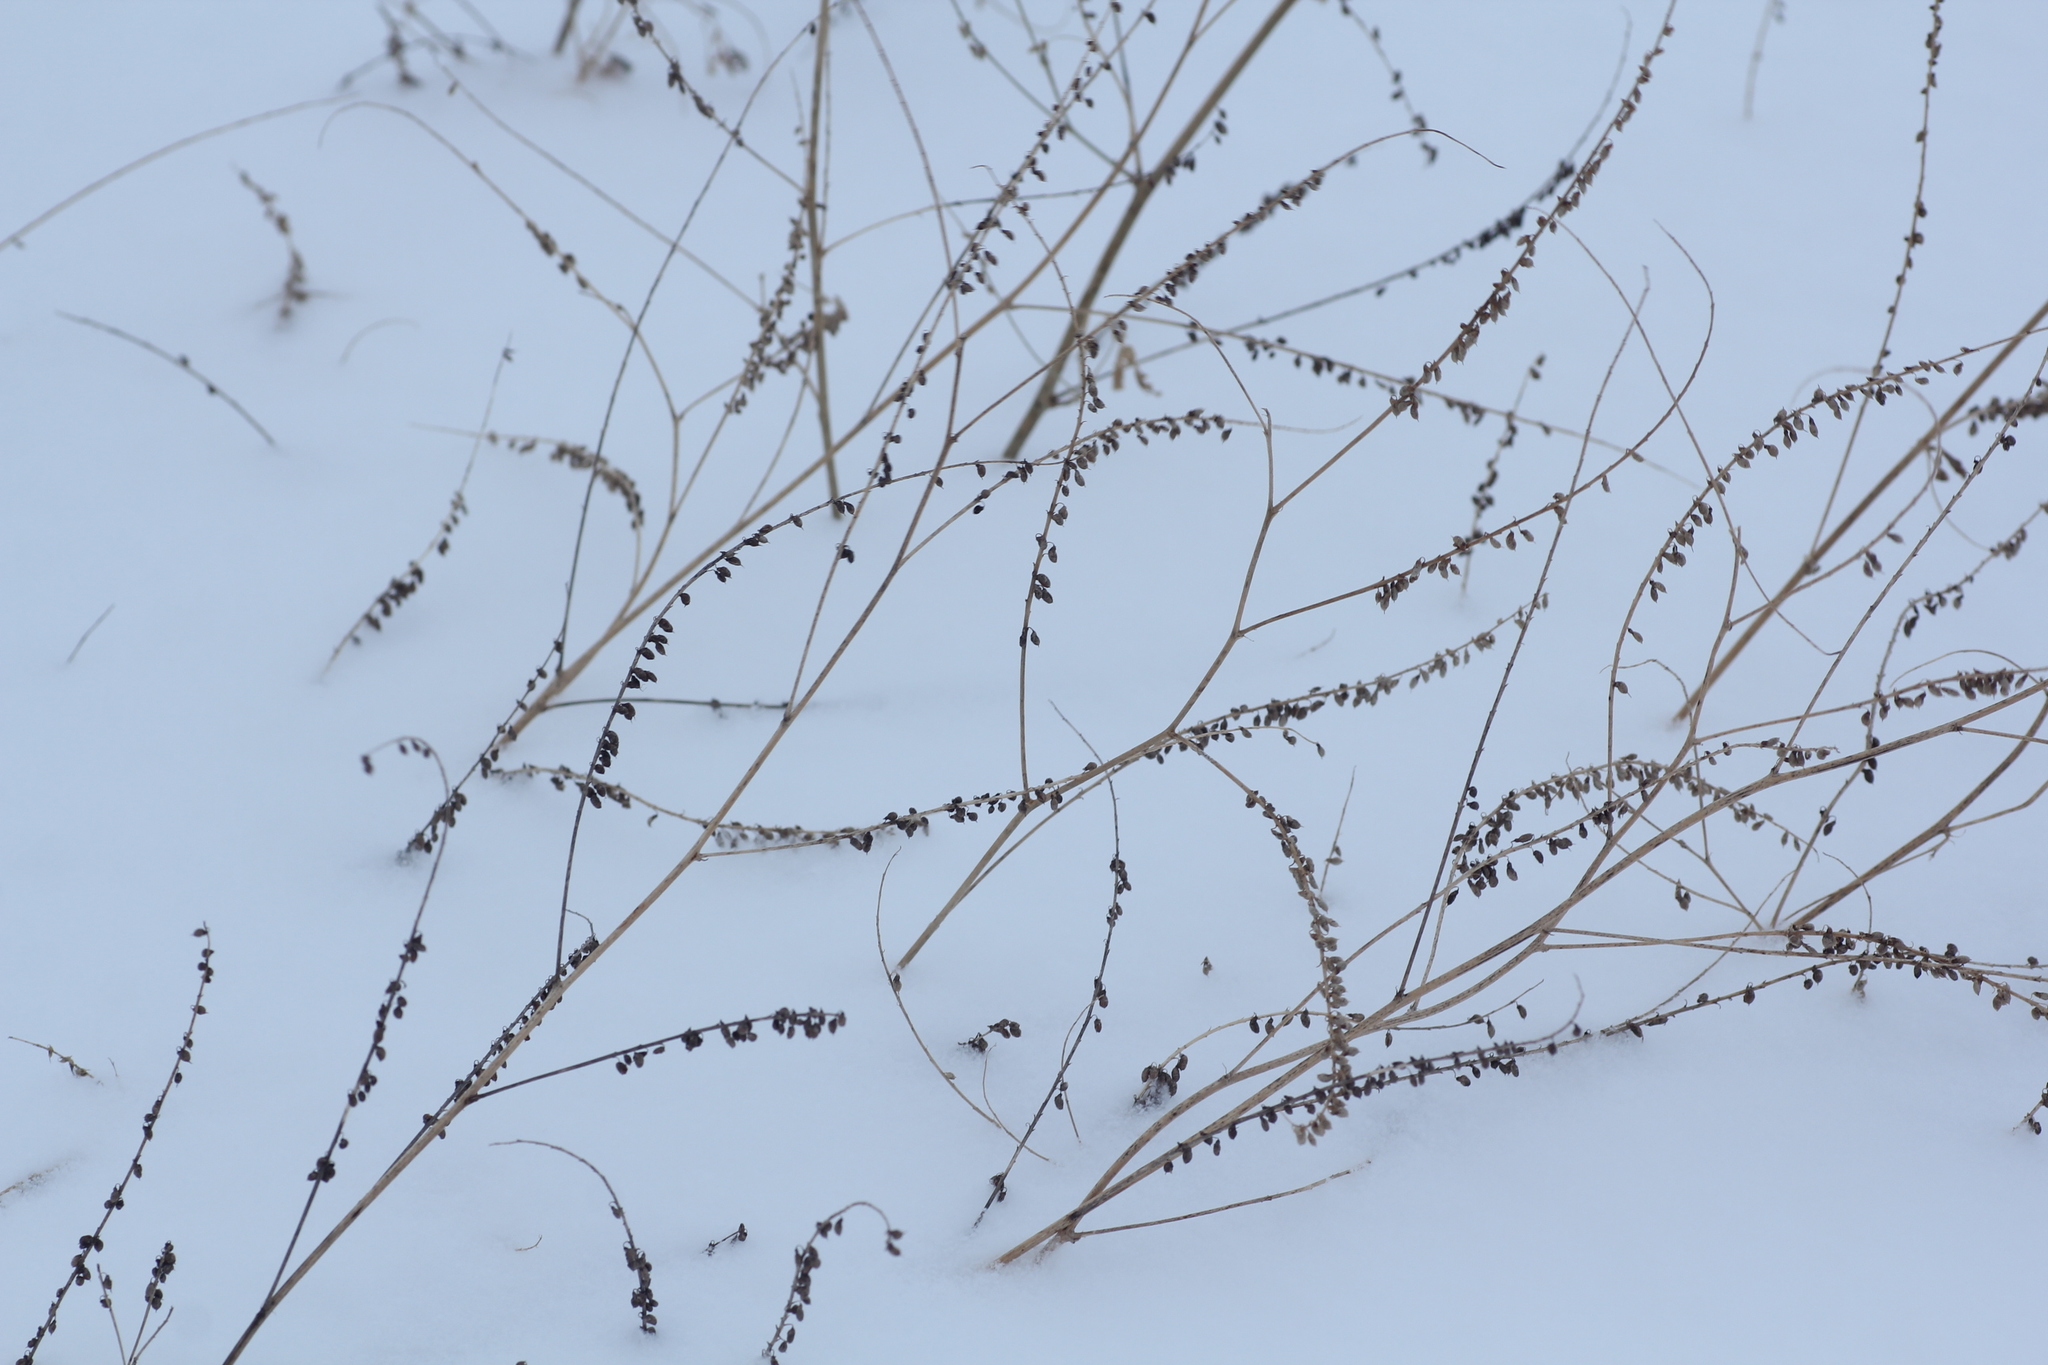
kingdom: Plantae
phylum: Tracheophyta
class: Magnoliopsida
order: Fabales
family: Fabaceae
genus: Melilotus
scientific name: Melilotus albus
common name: White melilot
